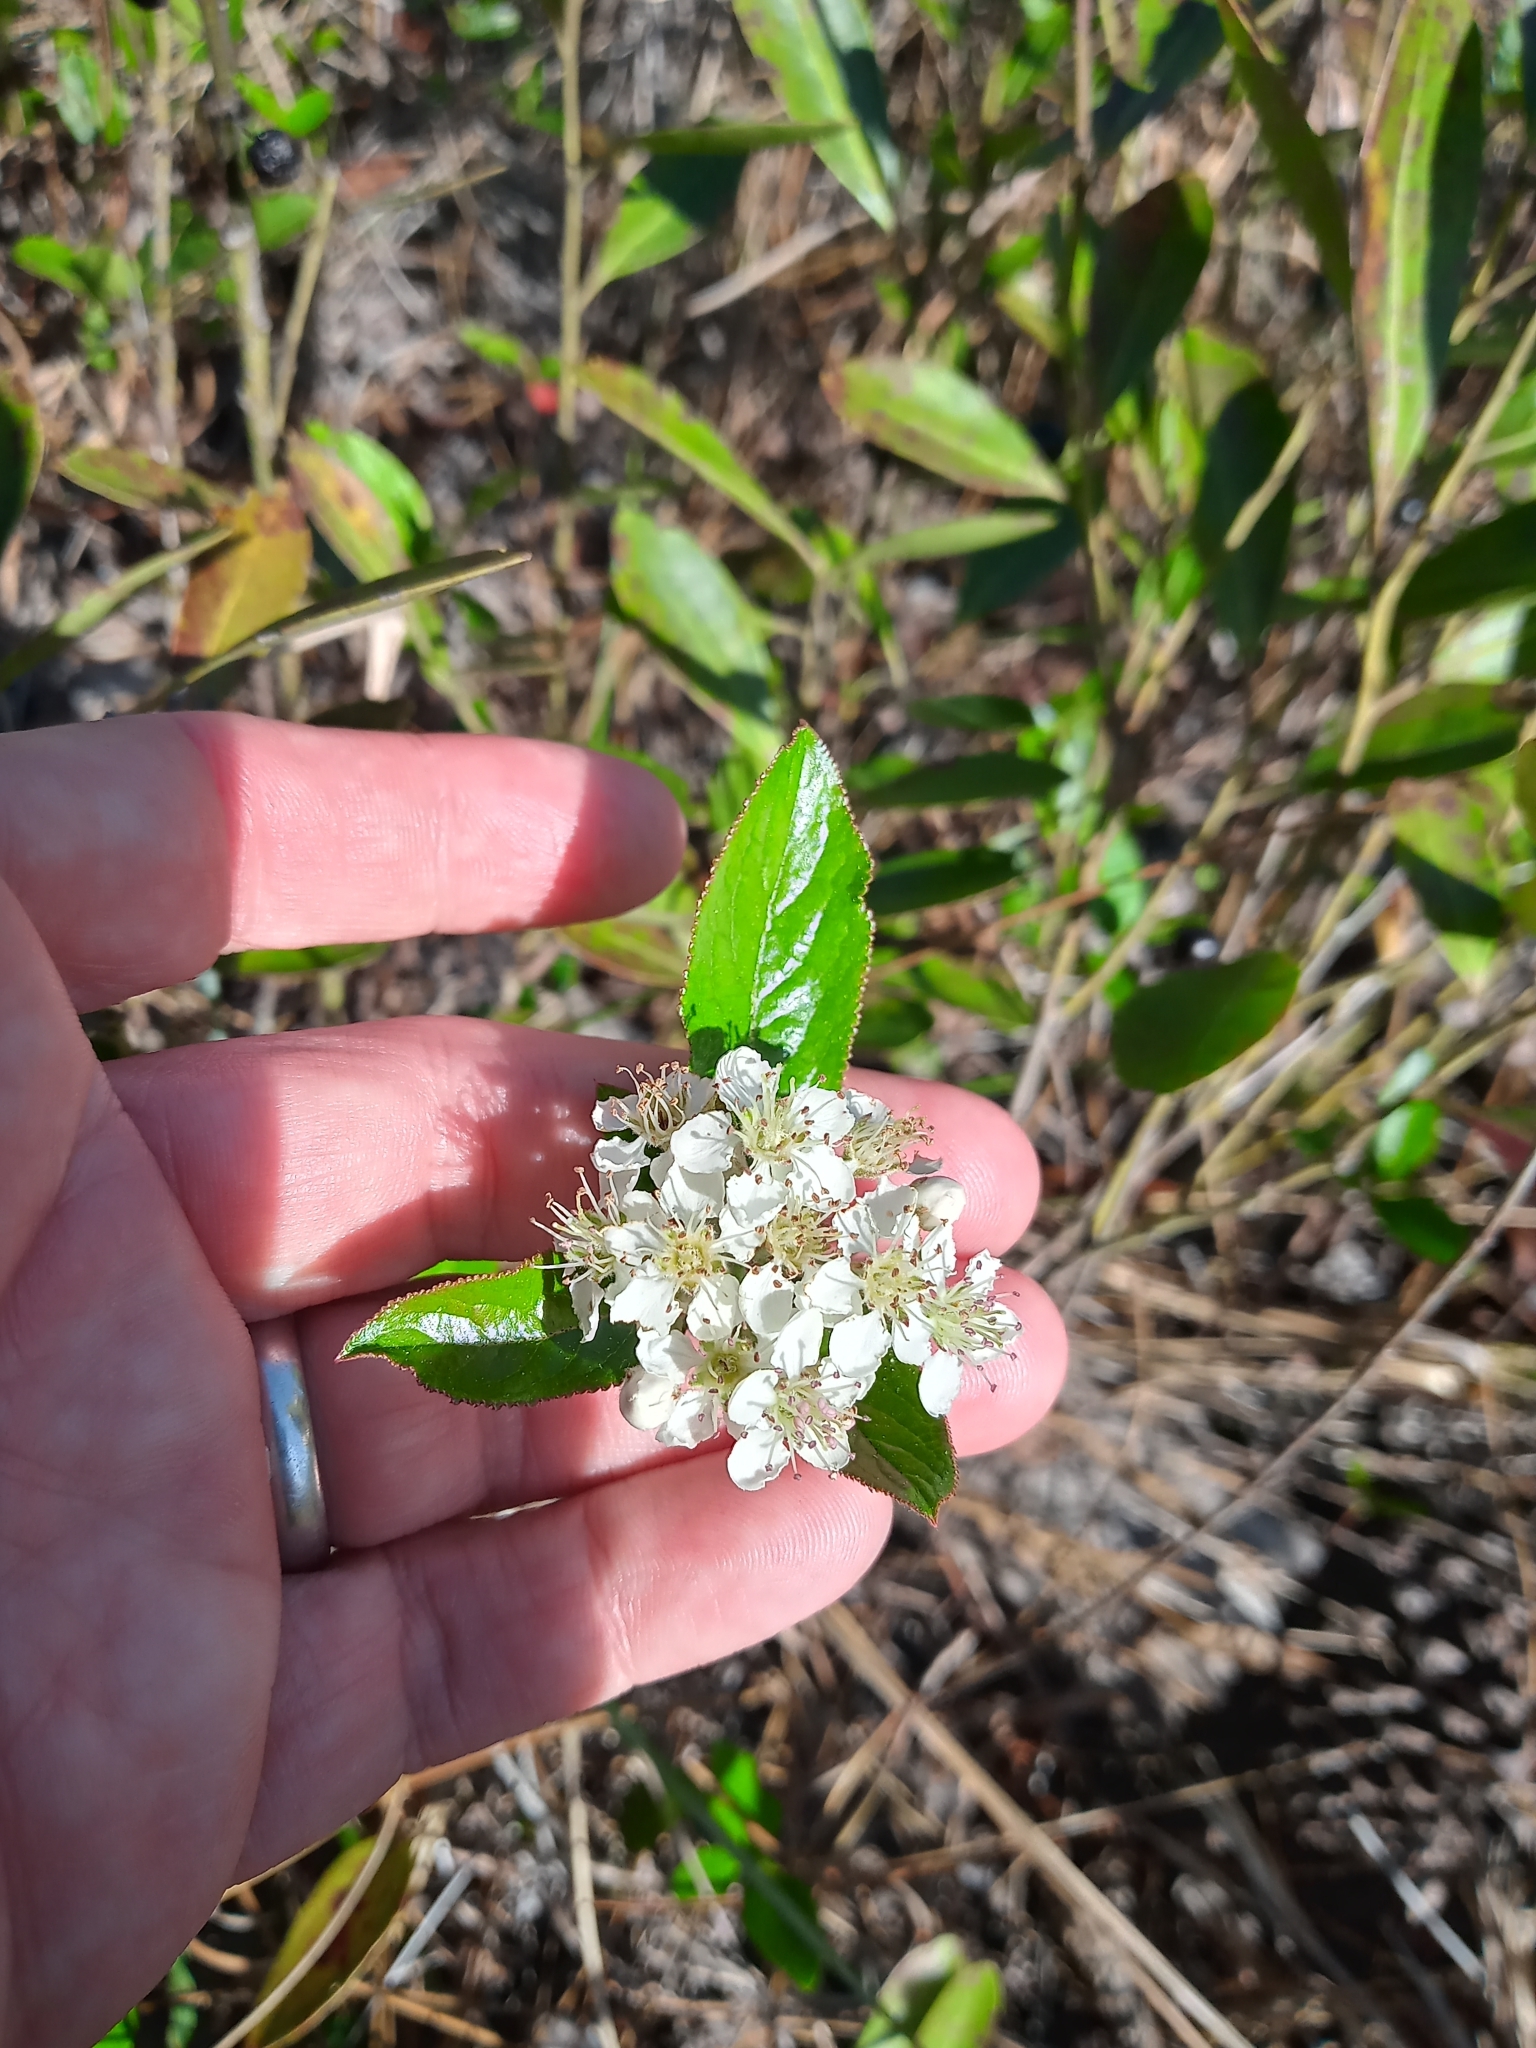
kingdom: Plantae
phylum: Tracheophyta
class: Magnoliopsida
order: Rosales
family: Rosaceae
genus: Aronia
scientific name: Aronia arbutifolia
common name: Red chokeberry
